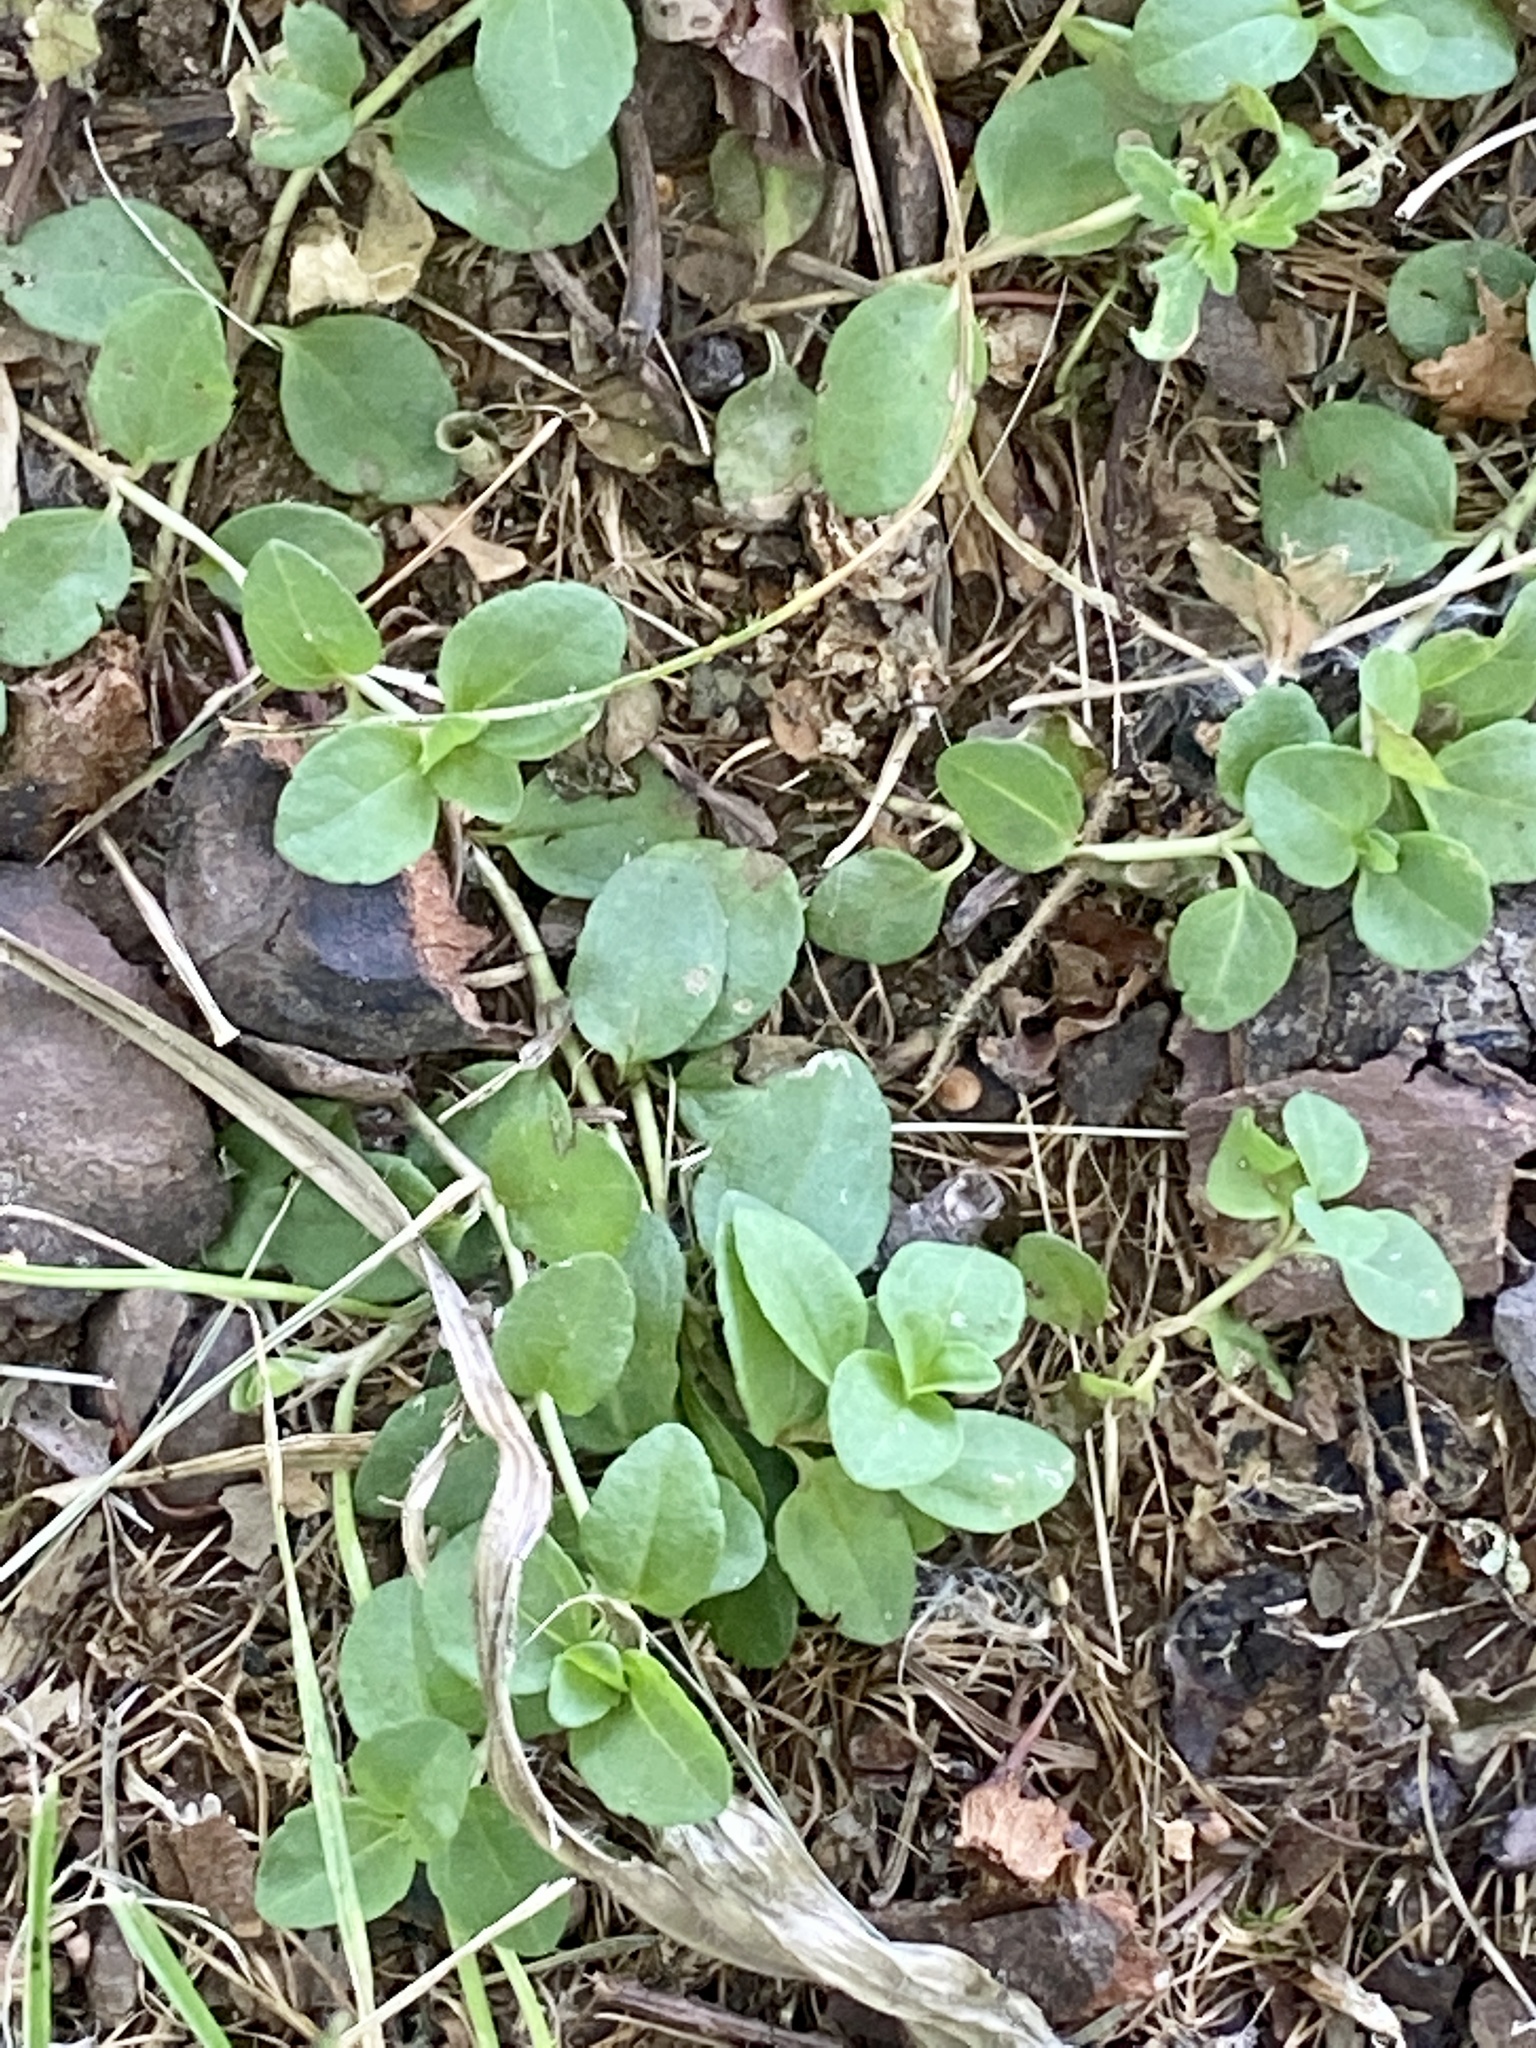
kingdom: Plantae
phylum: Tracheophyta
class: Magnoliopsida
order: Lamiales
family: Plantaginaceae
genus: Veronica
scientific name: Veronica serpyllifolia
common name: Thyme-leaved speedwell
